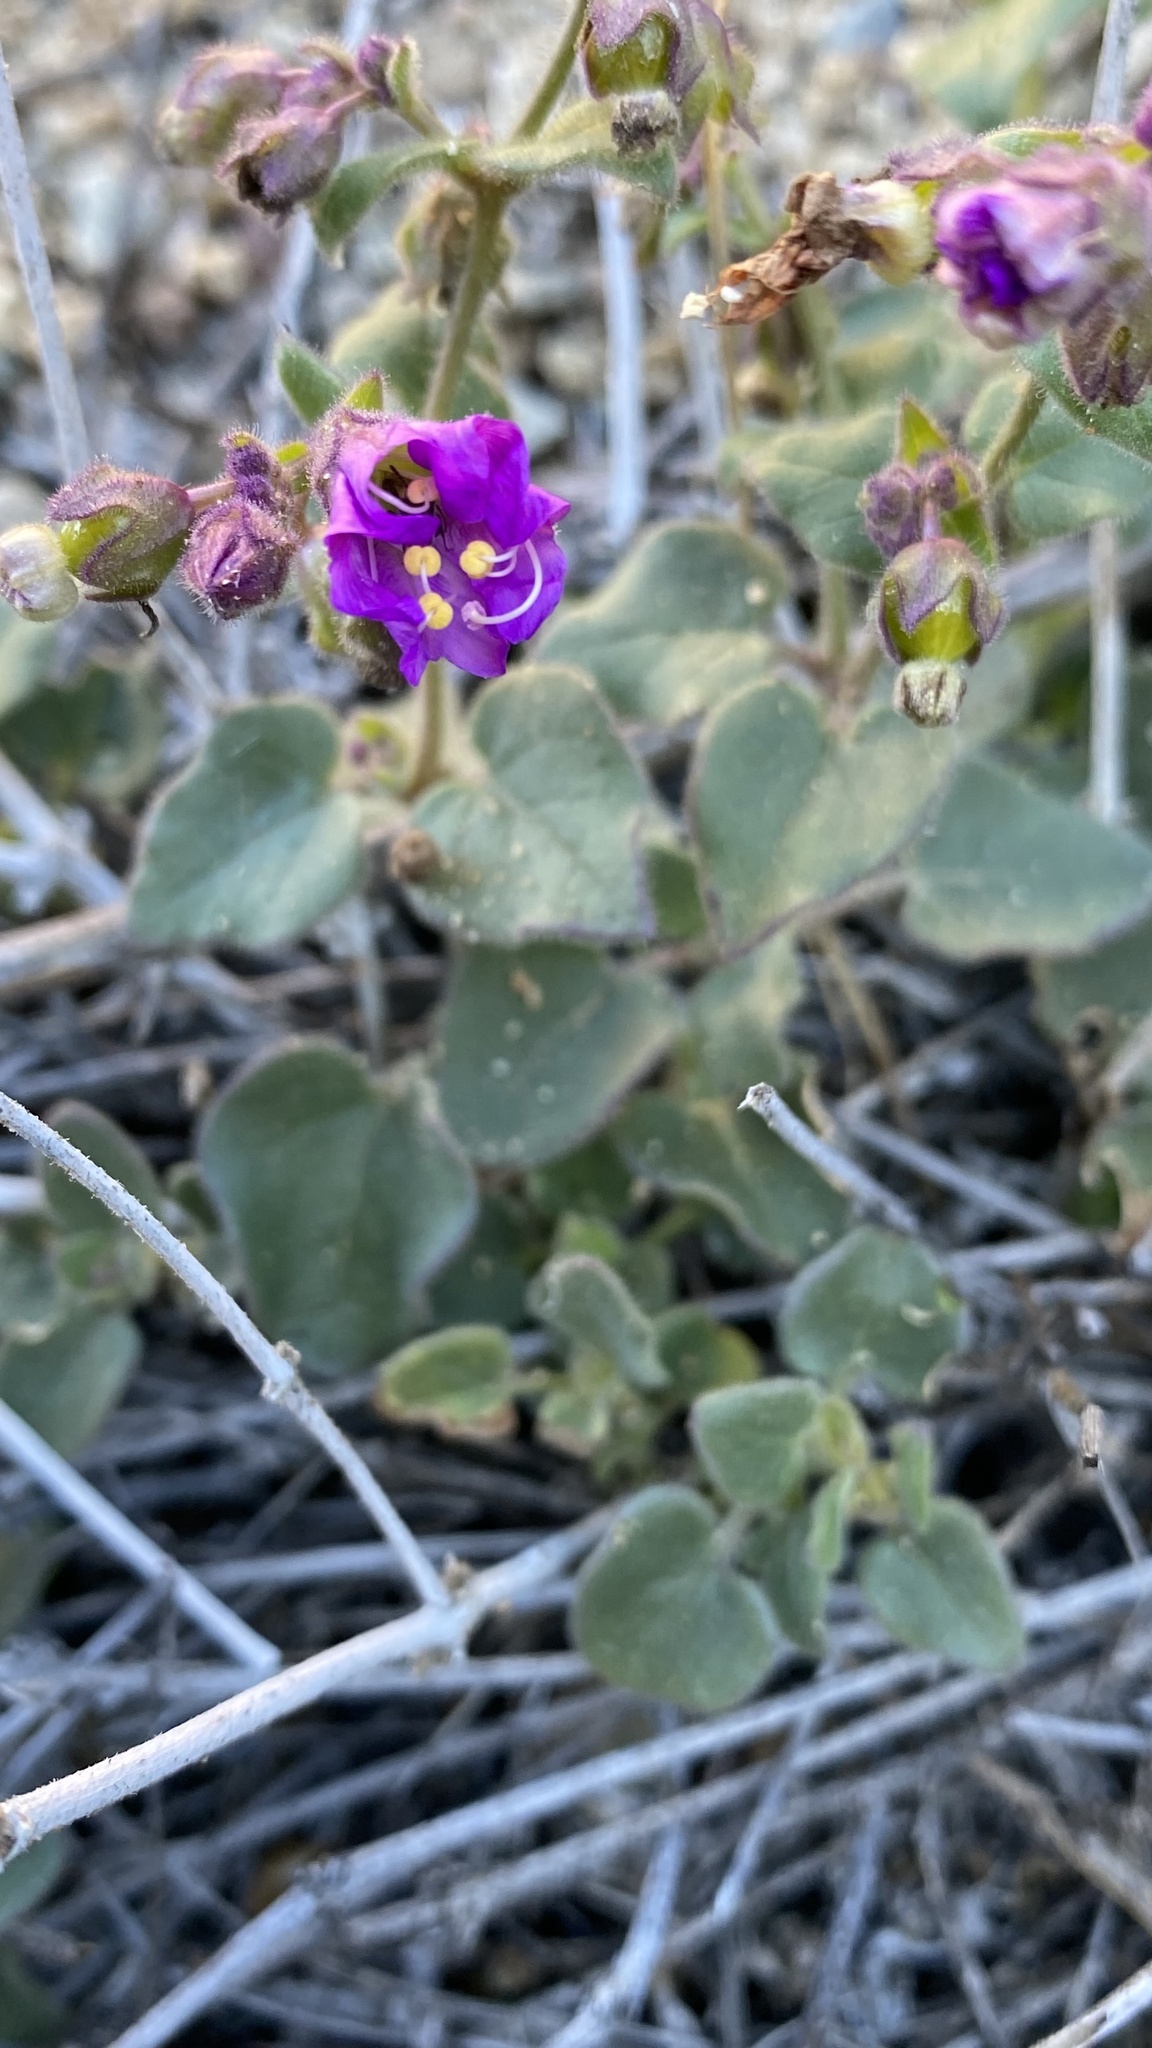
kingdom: Plantae
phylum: Tracheophyta
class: Magnoliopsida
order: Caryophyllales
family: Nyctaginaceae
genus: Mirabilis
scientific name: Mirabilis laevis
